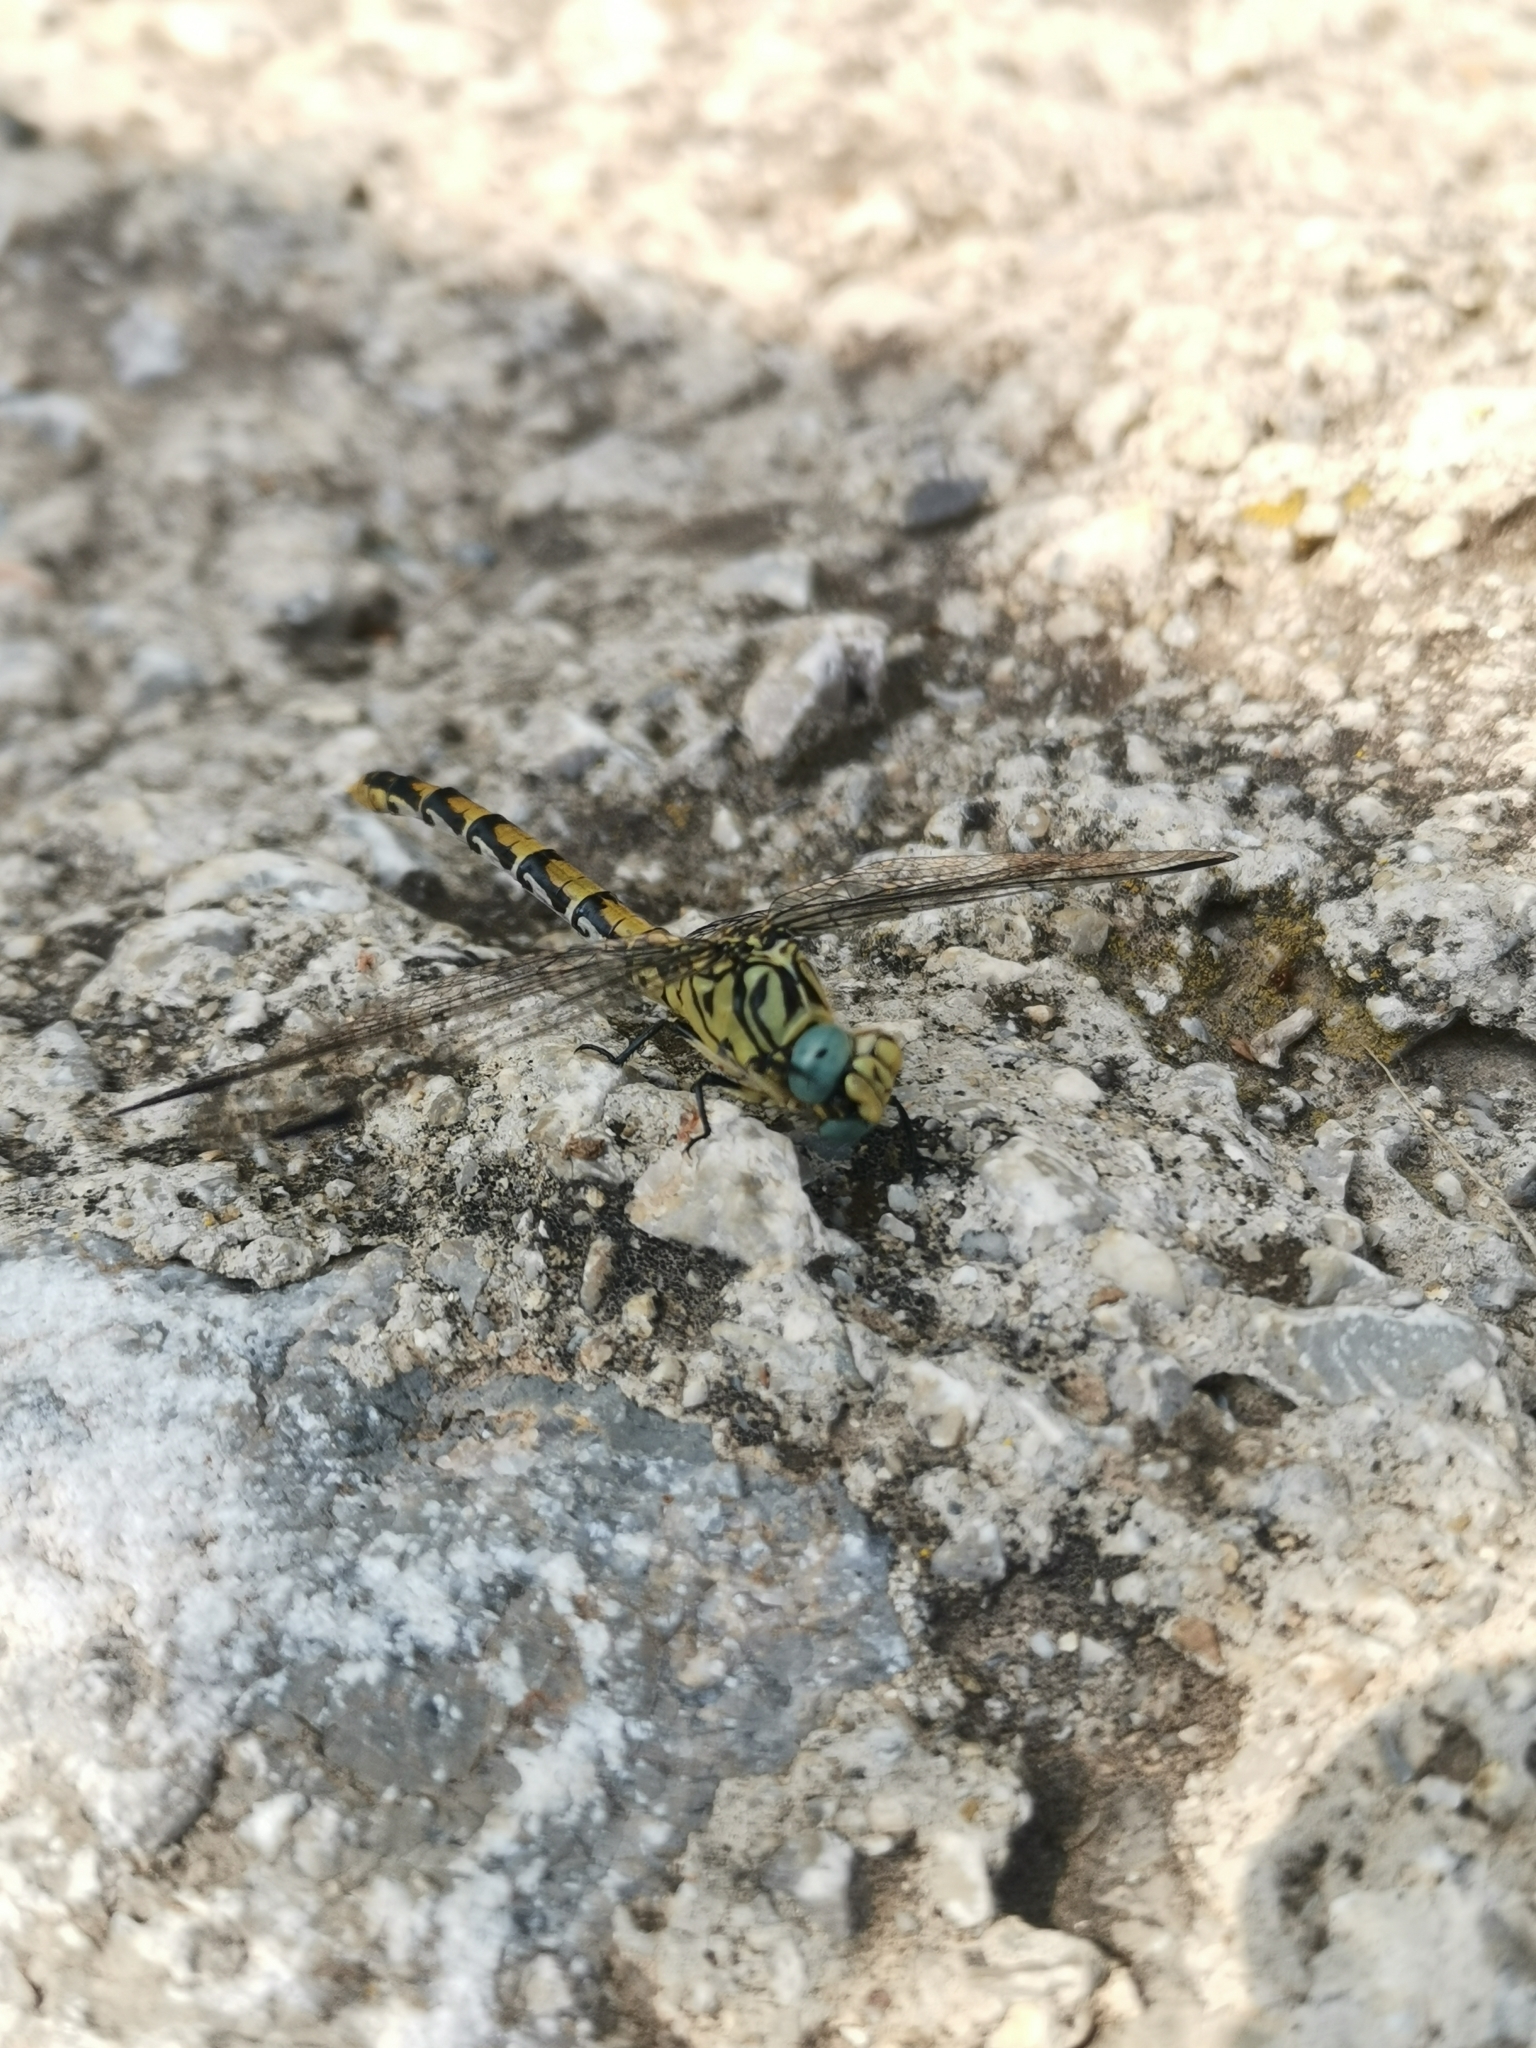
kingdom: Animalia
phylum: Arthropoda
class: Insecta
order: Odonata
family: Gomphidae
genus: Onychogomphus
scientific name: Onychogomphus forcipatus
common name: Small pincertail
